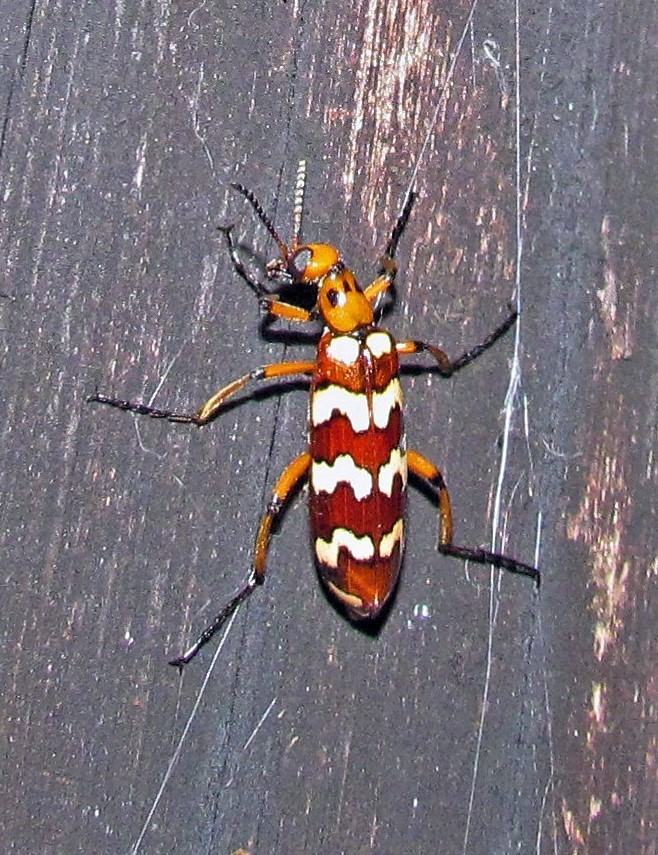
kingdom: Animalia
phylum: Arthropoda
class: Insecta
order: Coleoptera
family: Meloidae
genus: Pyrota
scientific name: Pyrota
